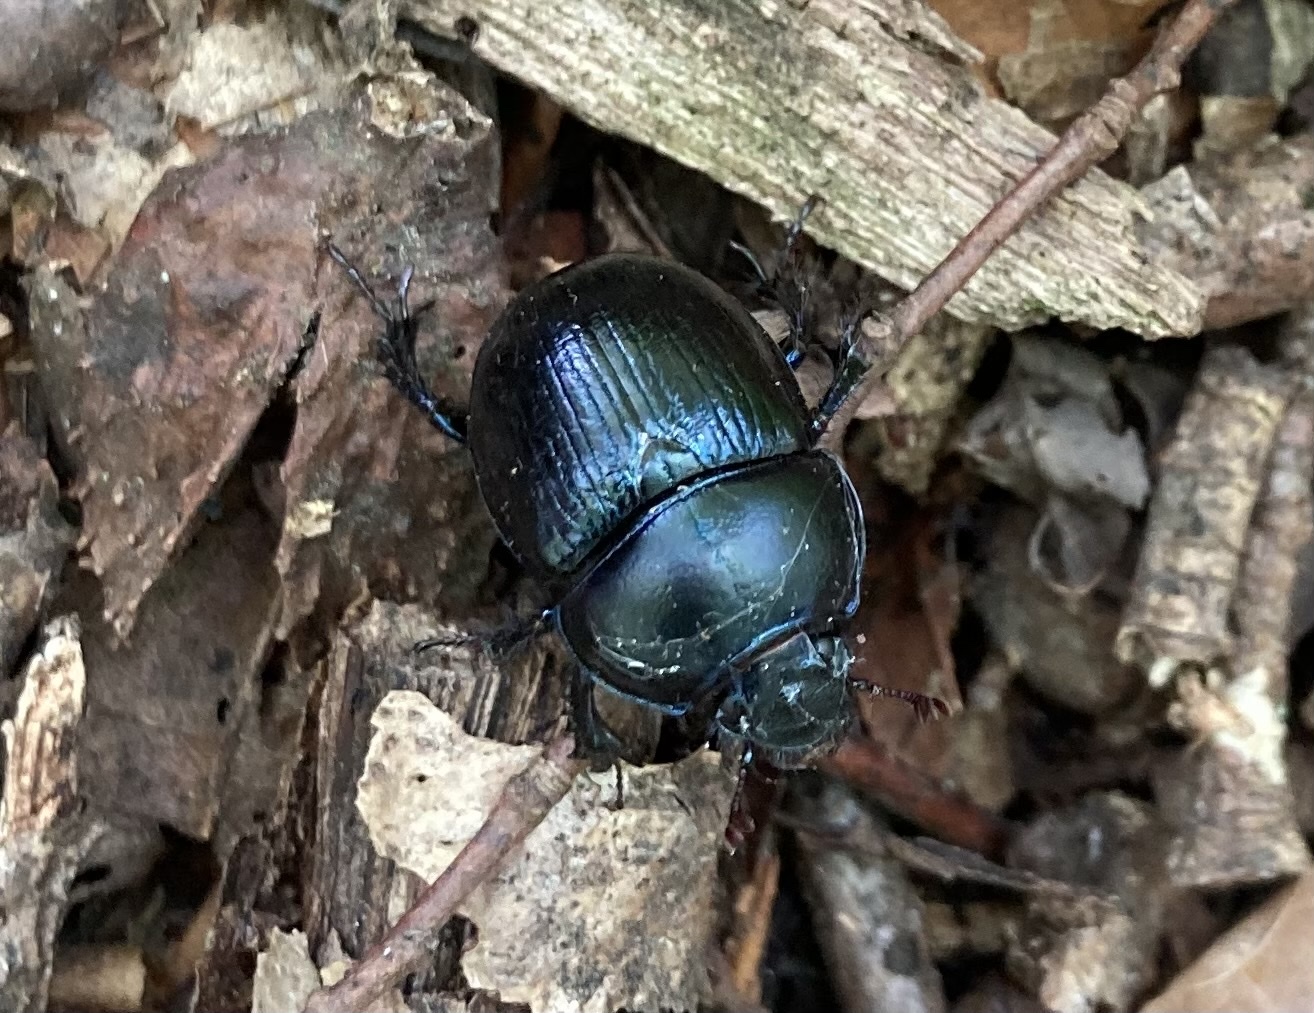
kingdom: Animalia
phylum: Arthropoda
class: Insecta
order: Coleoptera
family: Geotrupidae
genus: Anoplotrupes
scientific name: Anoplotrupes stercorosus
